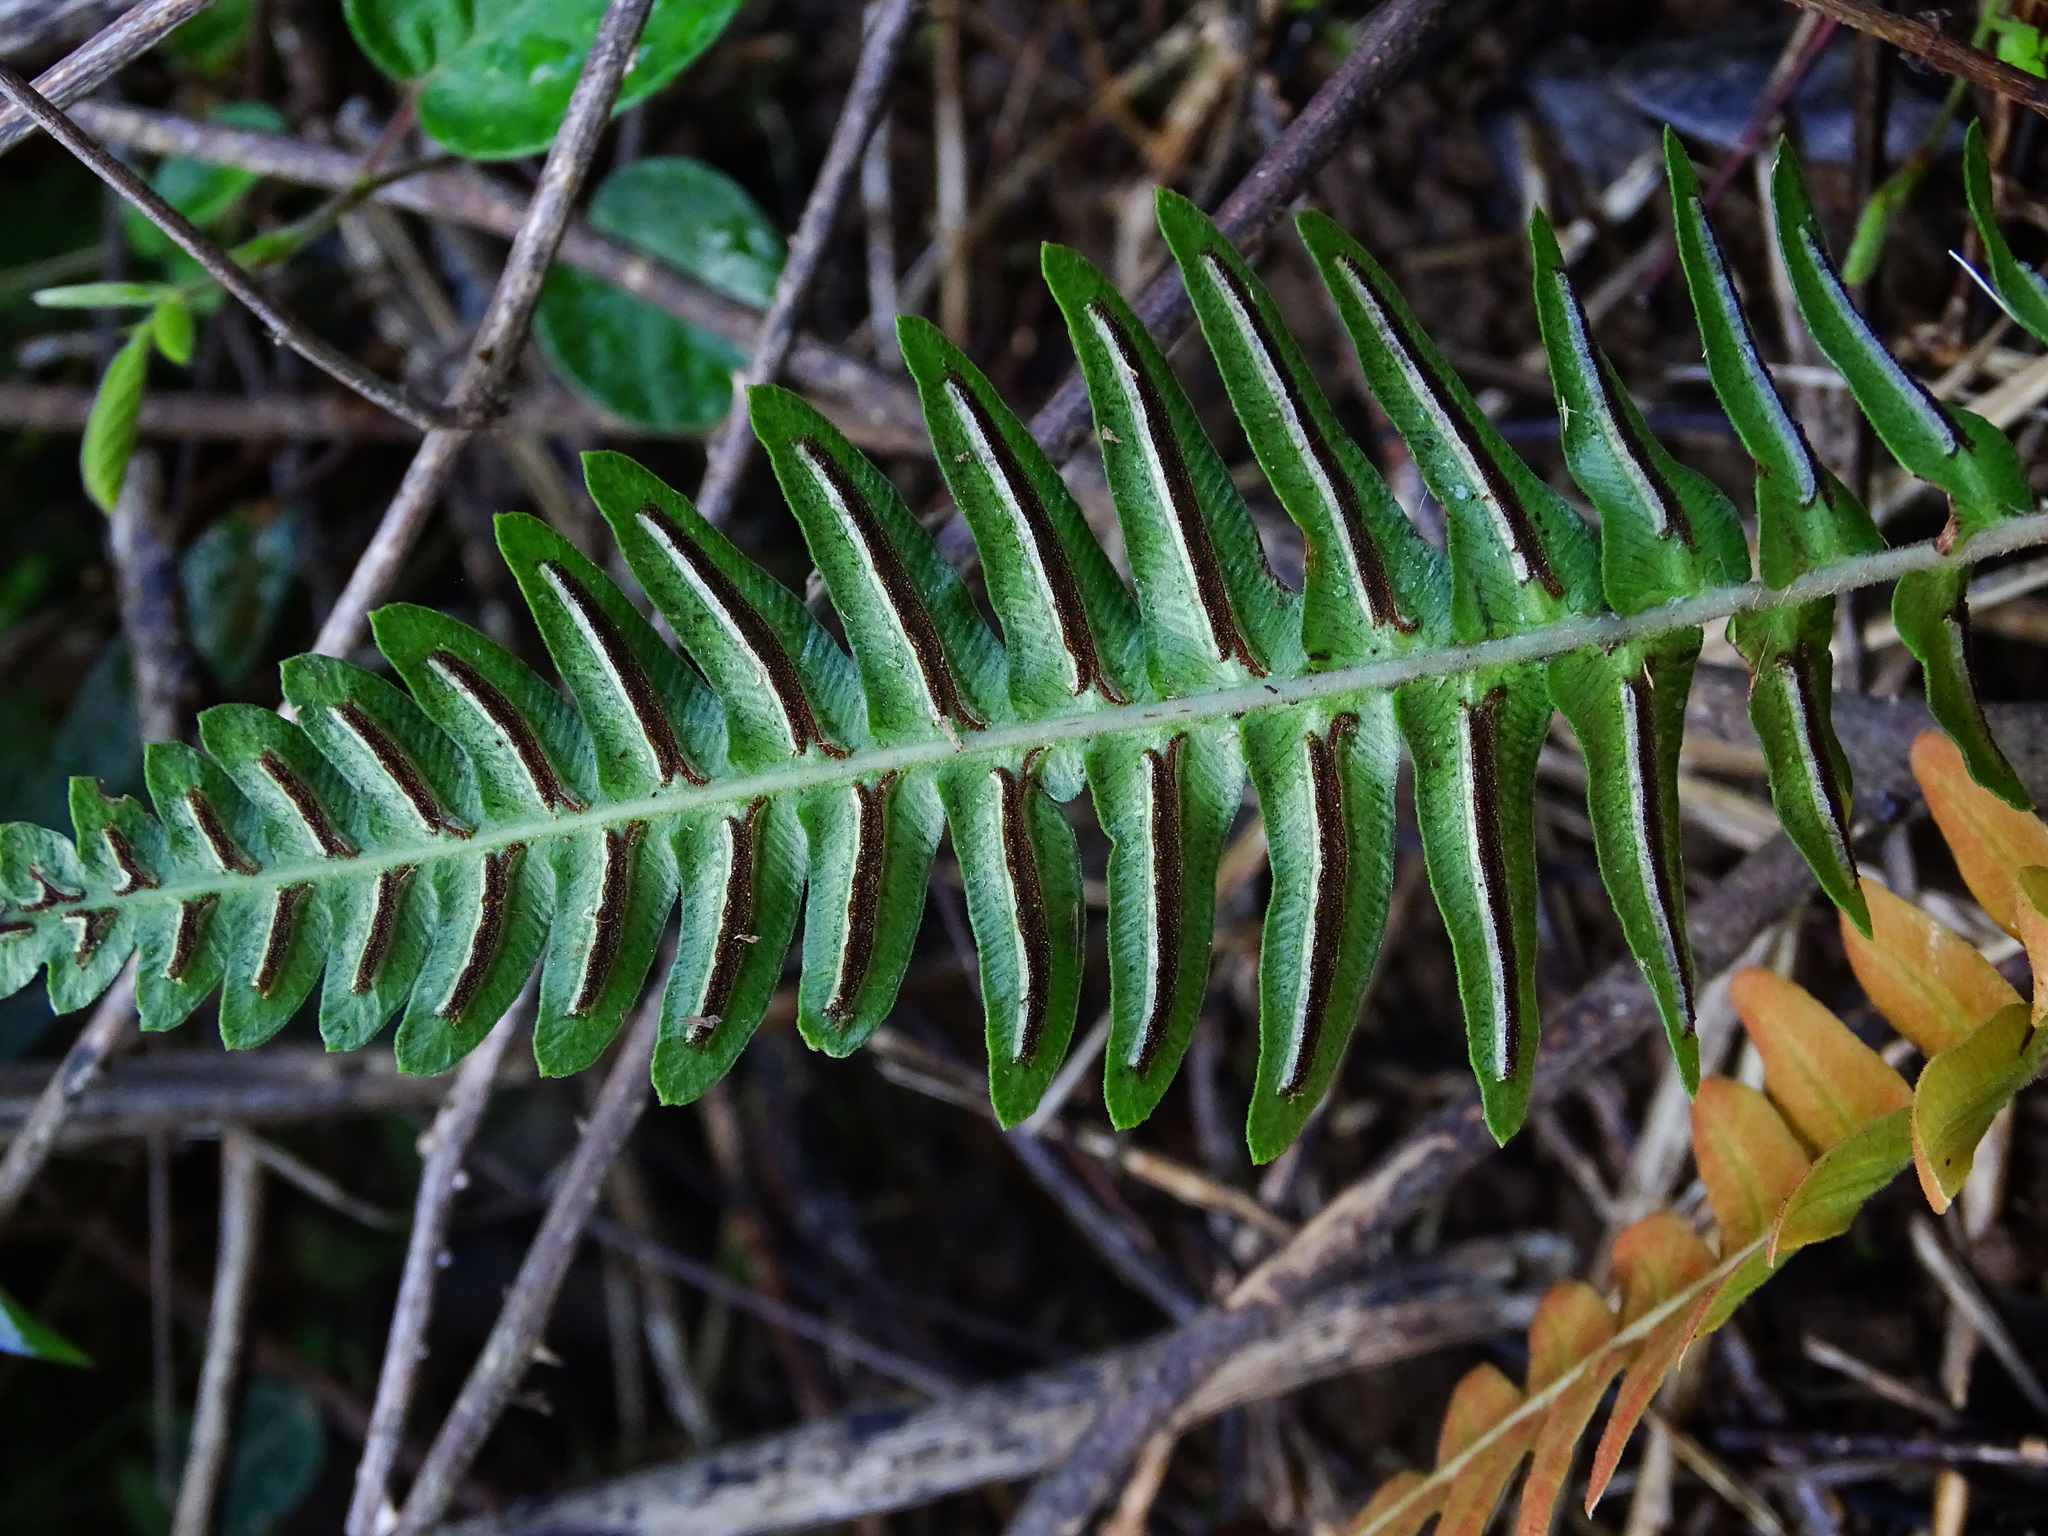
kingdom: Plantae
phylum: Tracheophyta
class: Polypodiopsida
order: Polypodiales
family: Blechnaceae
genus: Blechnum
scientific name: Blechnum appendiculatum
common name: Palm fern
